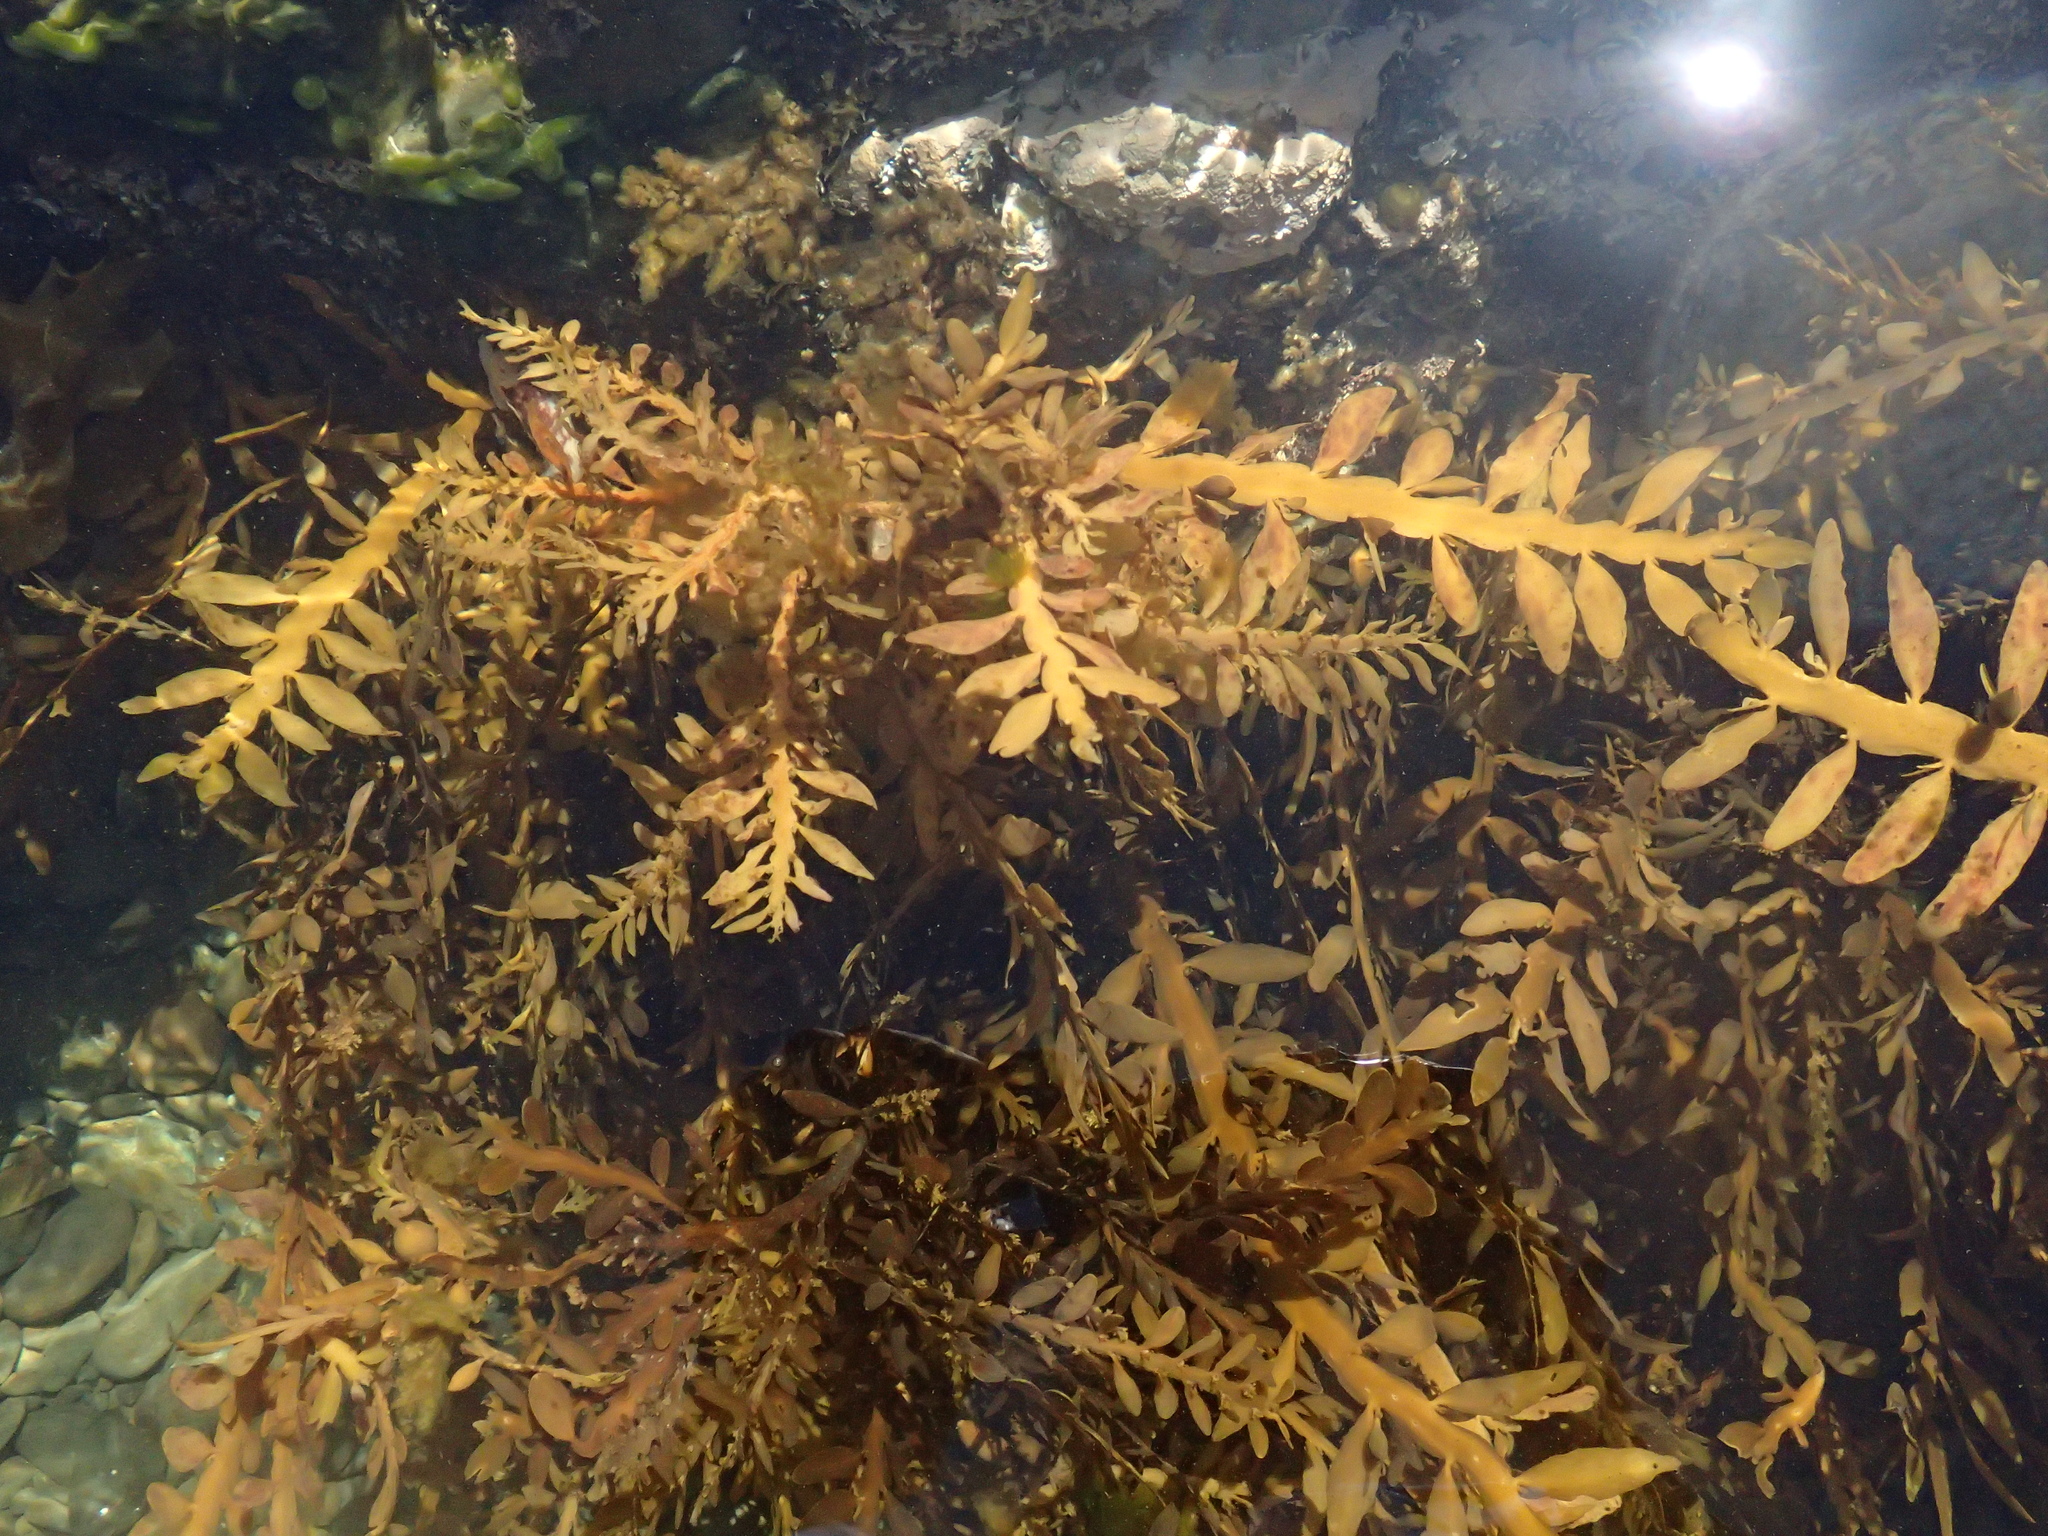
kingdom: Chromista
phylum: Ochrophyta
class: Phaeophyceae
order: Fucales
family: Sargassaceae
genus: Carpophyllum
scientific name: Carpophyllum maschalocarpum
